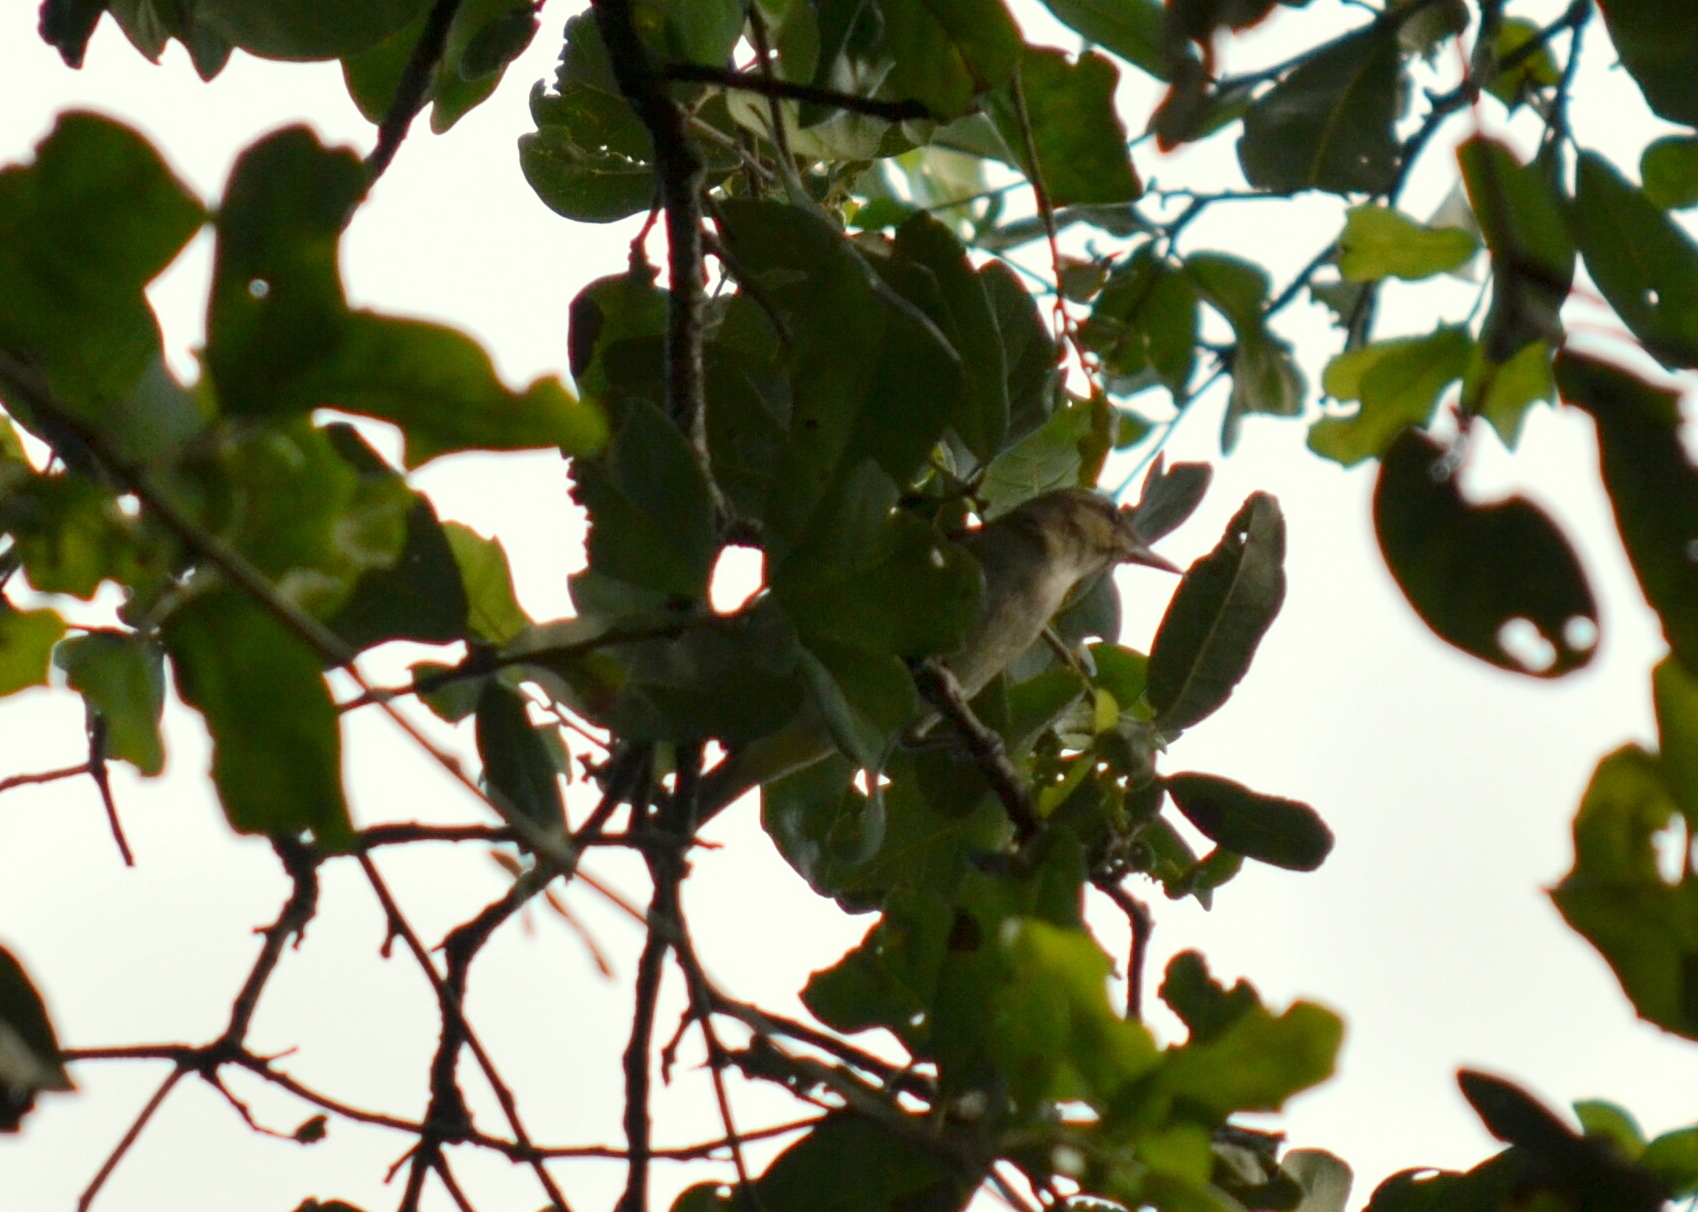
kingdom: Animalia
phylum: Chordata
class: Aves
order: Passeriformes
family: Vireonidae
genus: Vireo
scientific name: Vireo altiloquus
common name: Black-whiskered vireo
